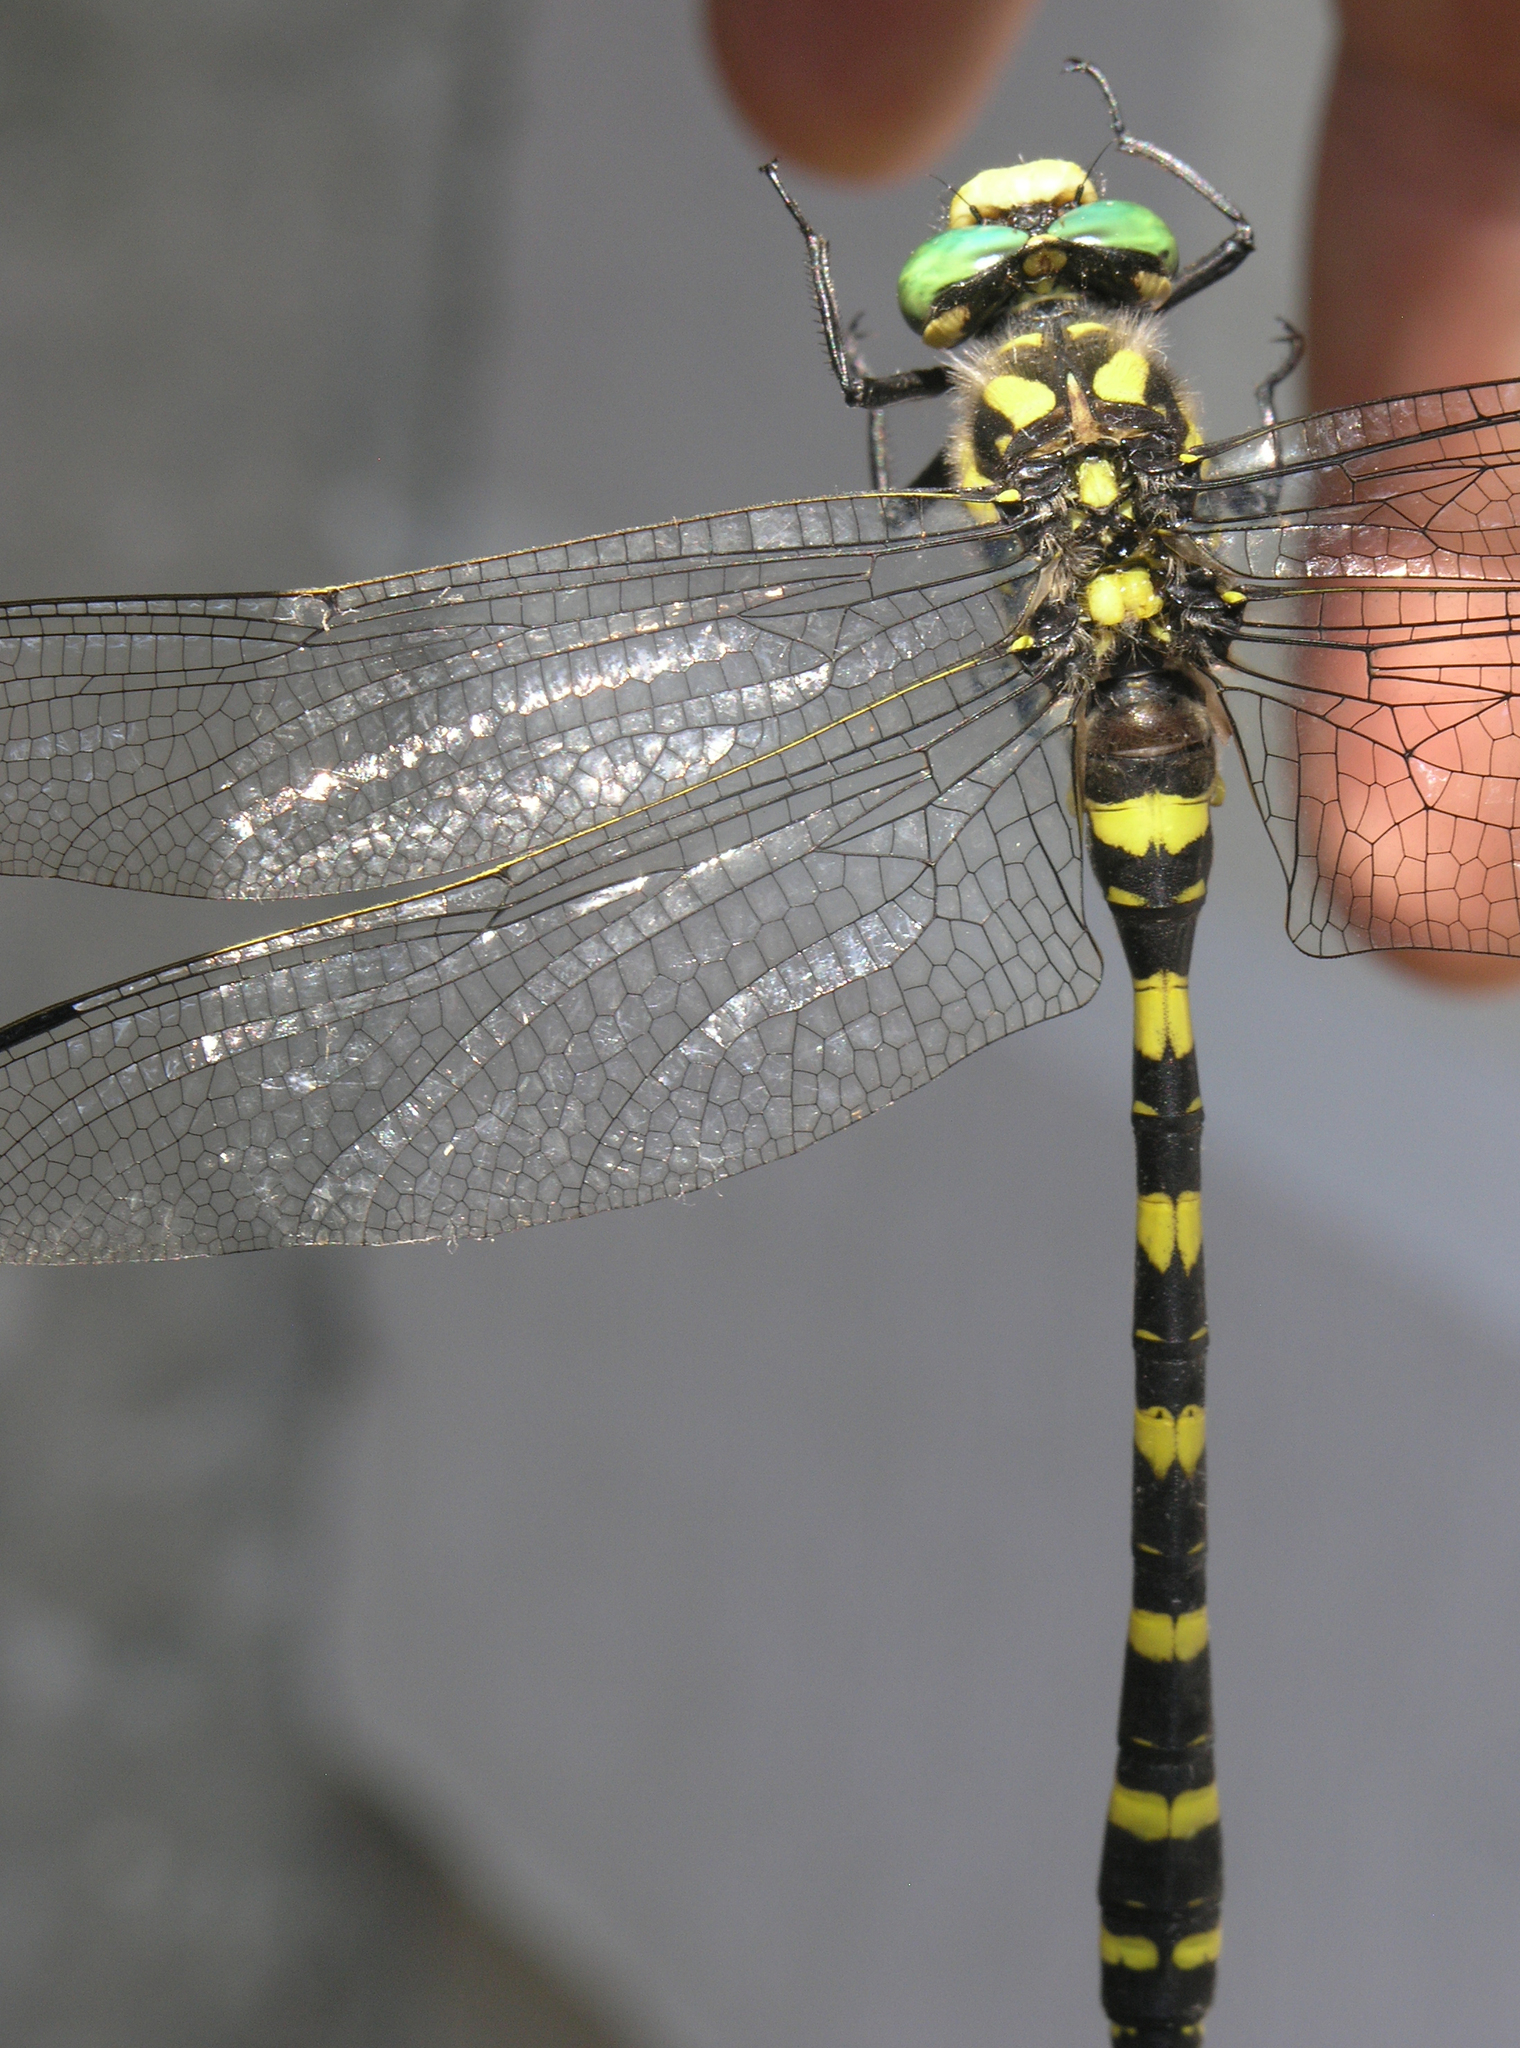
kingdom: Animalia
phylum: Arthropoda
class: Insecta
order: Odonata
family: Cordulegastridae
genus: Cordulegaster
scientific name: Cordulegaster picta
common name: Turkish goldenring
